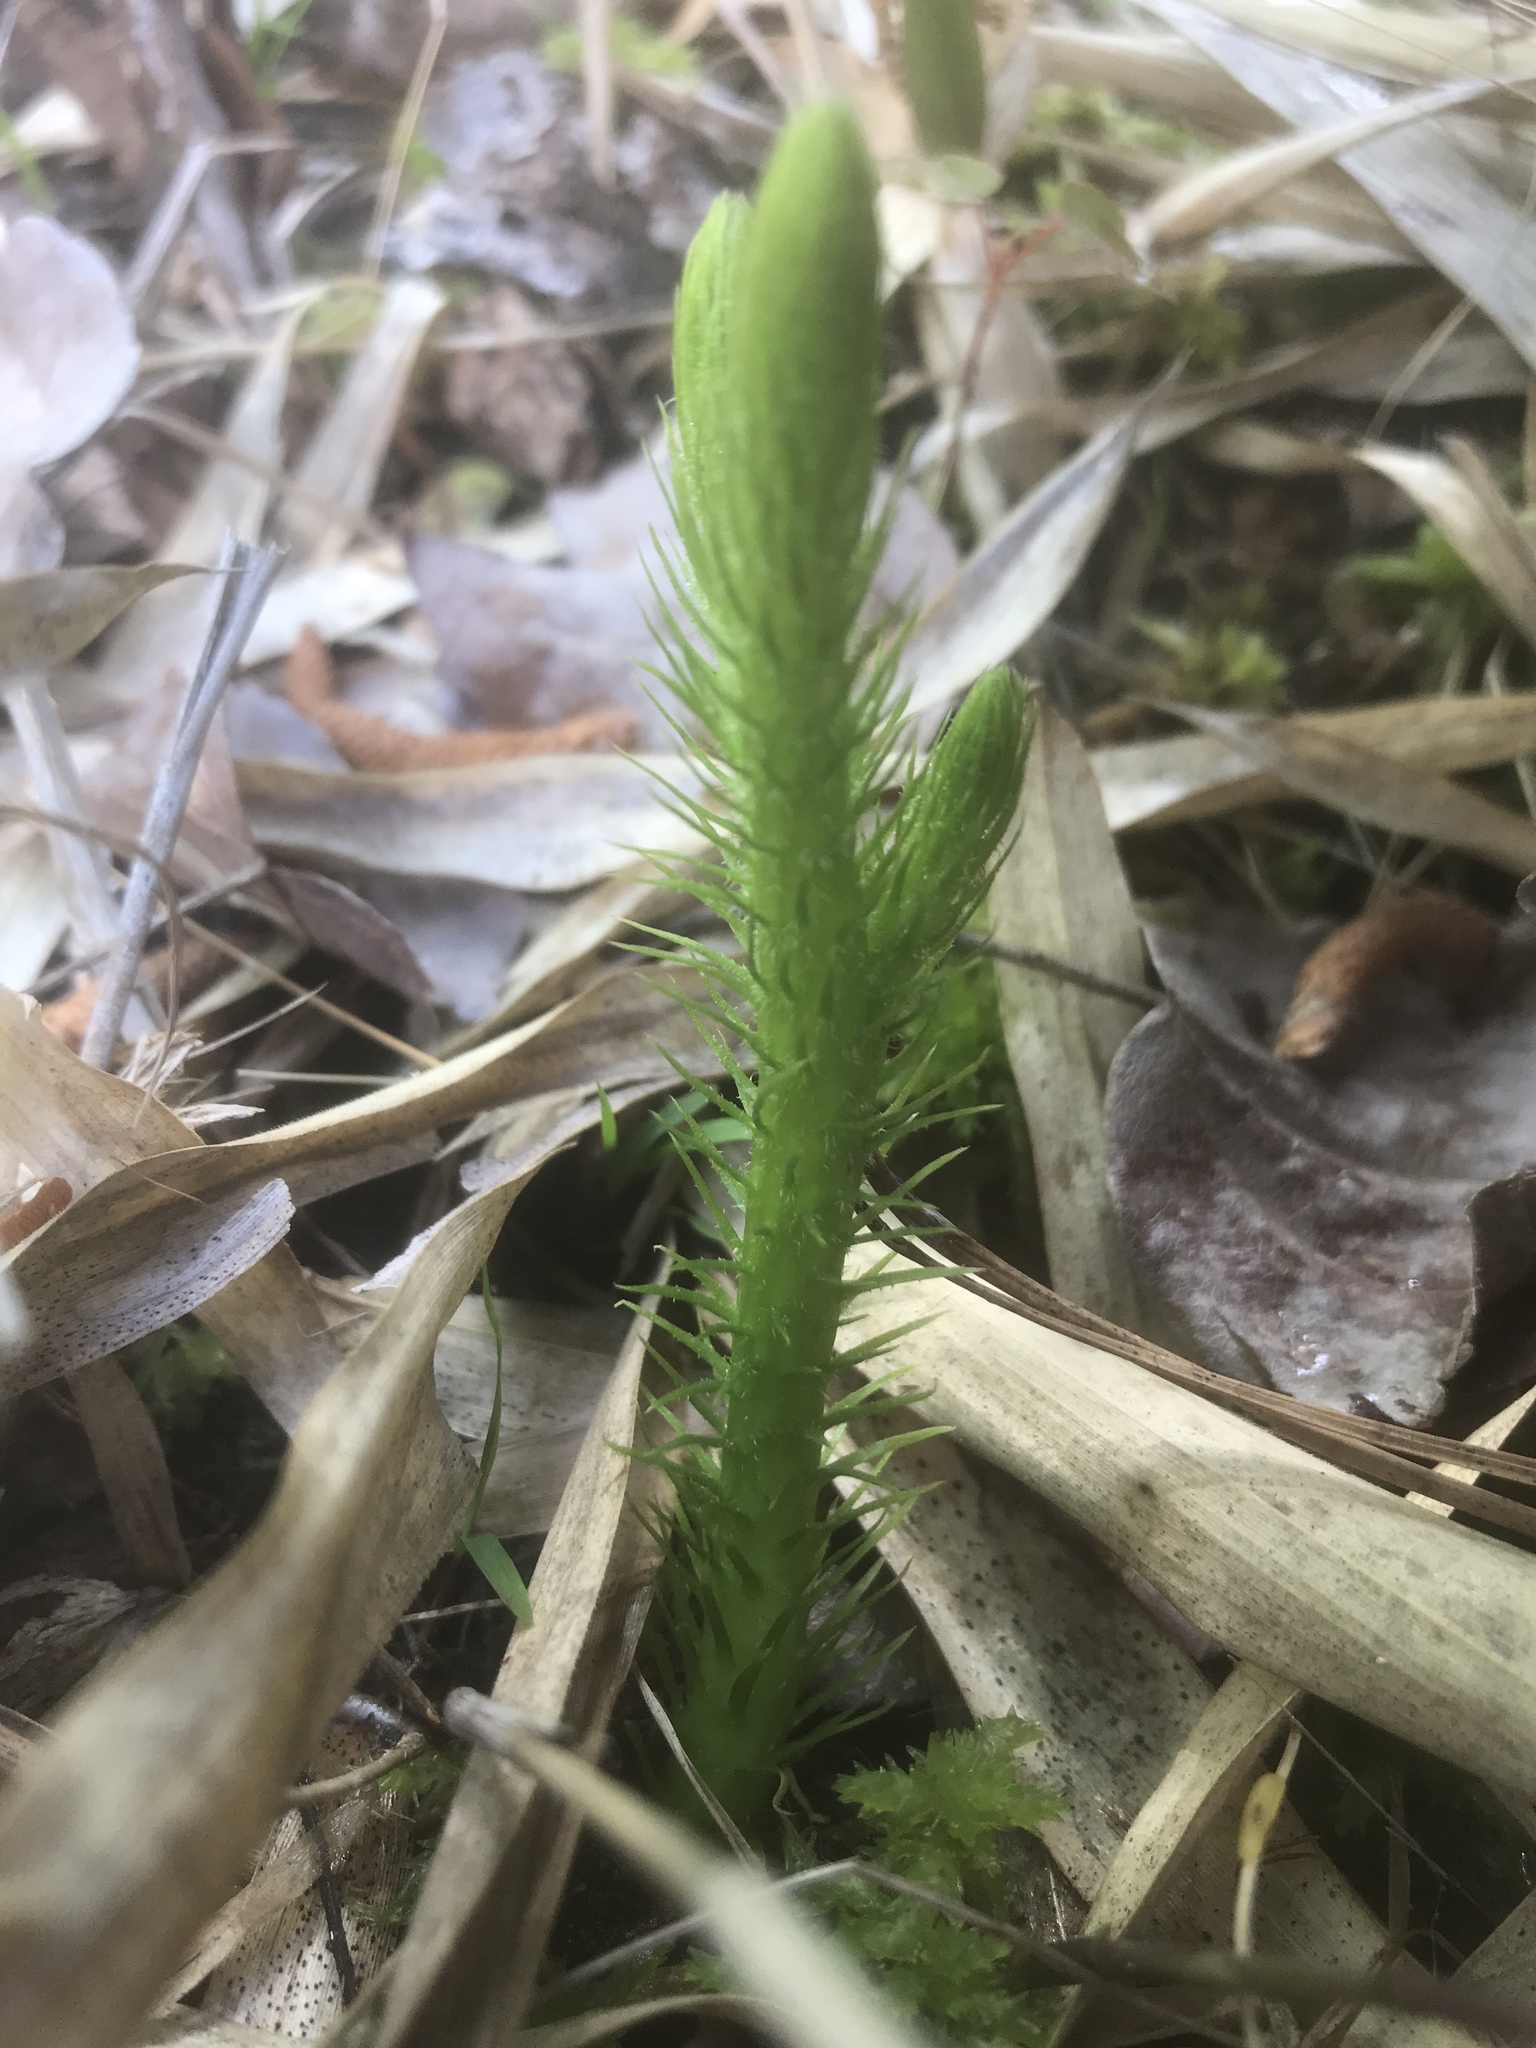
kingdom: Plantae
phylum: Tracheophyta
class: Lycopodiopsida
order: Lycopodiales
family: Lycopodiaceae
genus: Lycopodiella
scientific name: Lycopodiella alopecuroides
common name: Foxtail clubmoss
